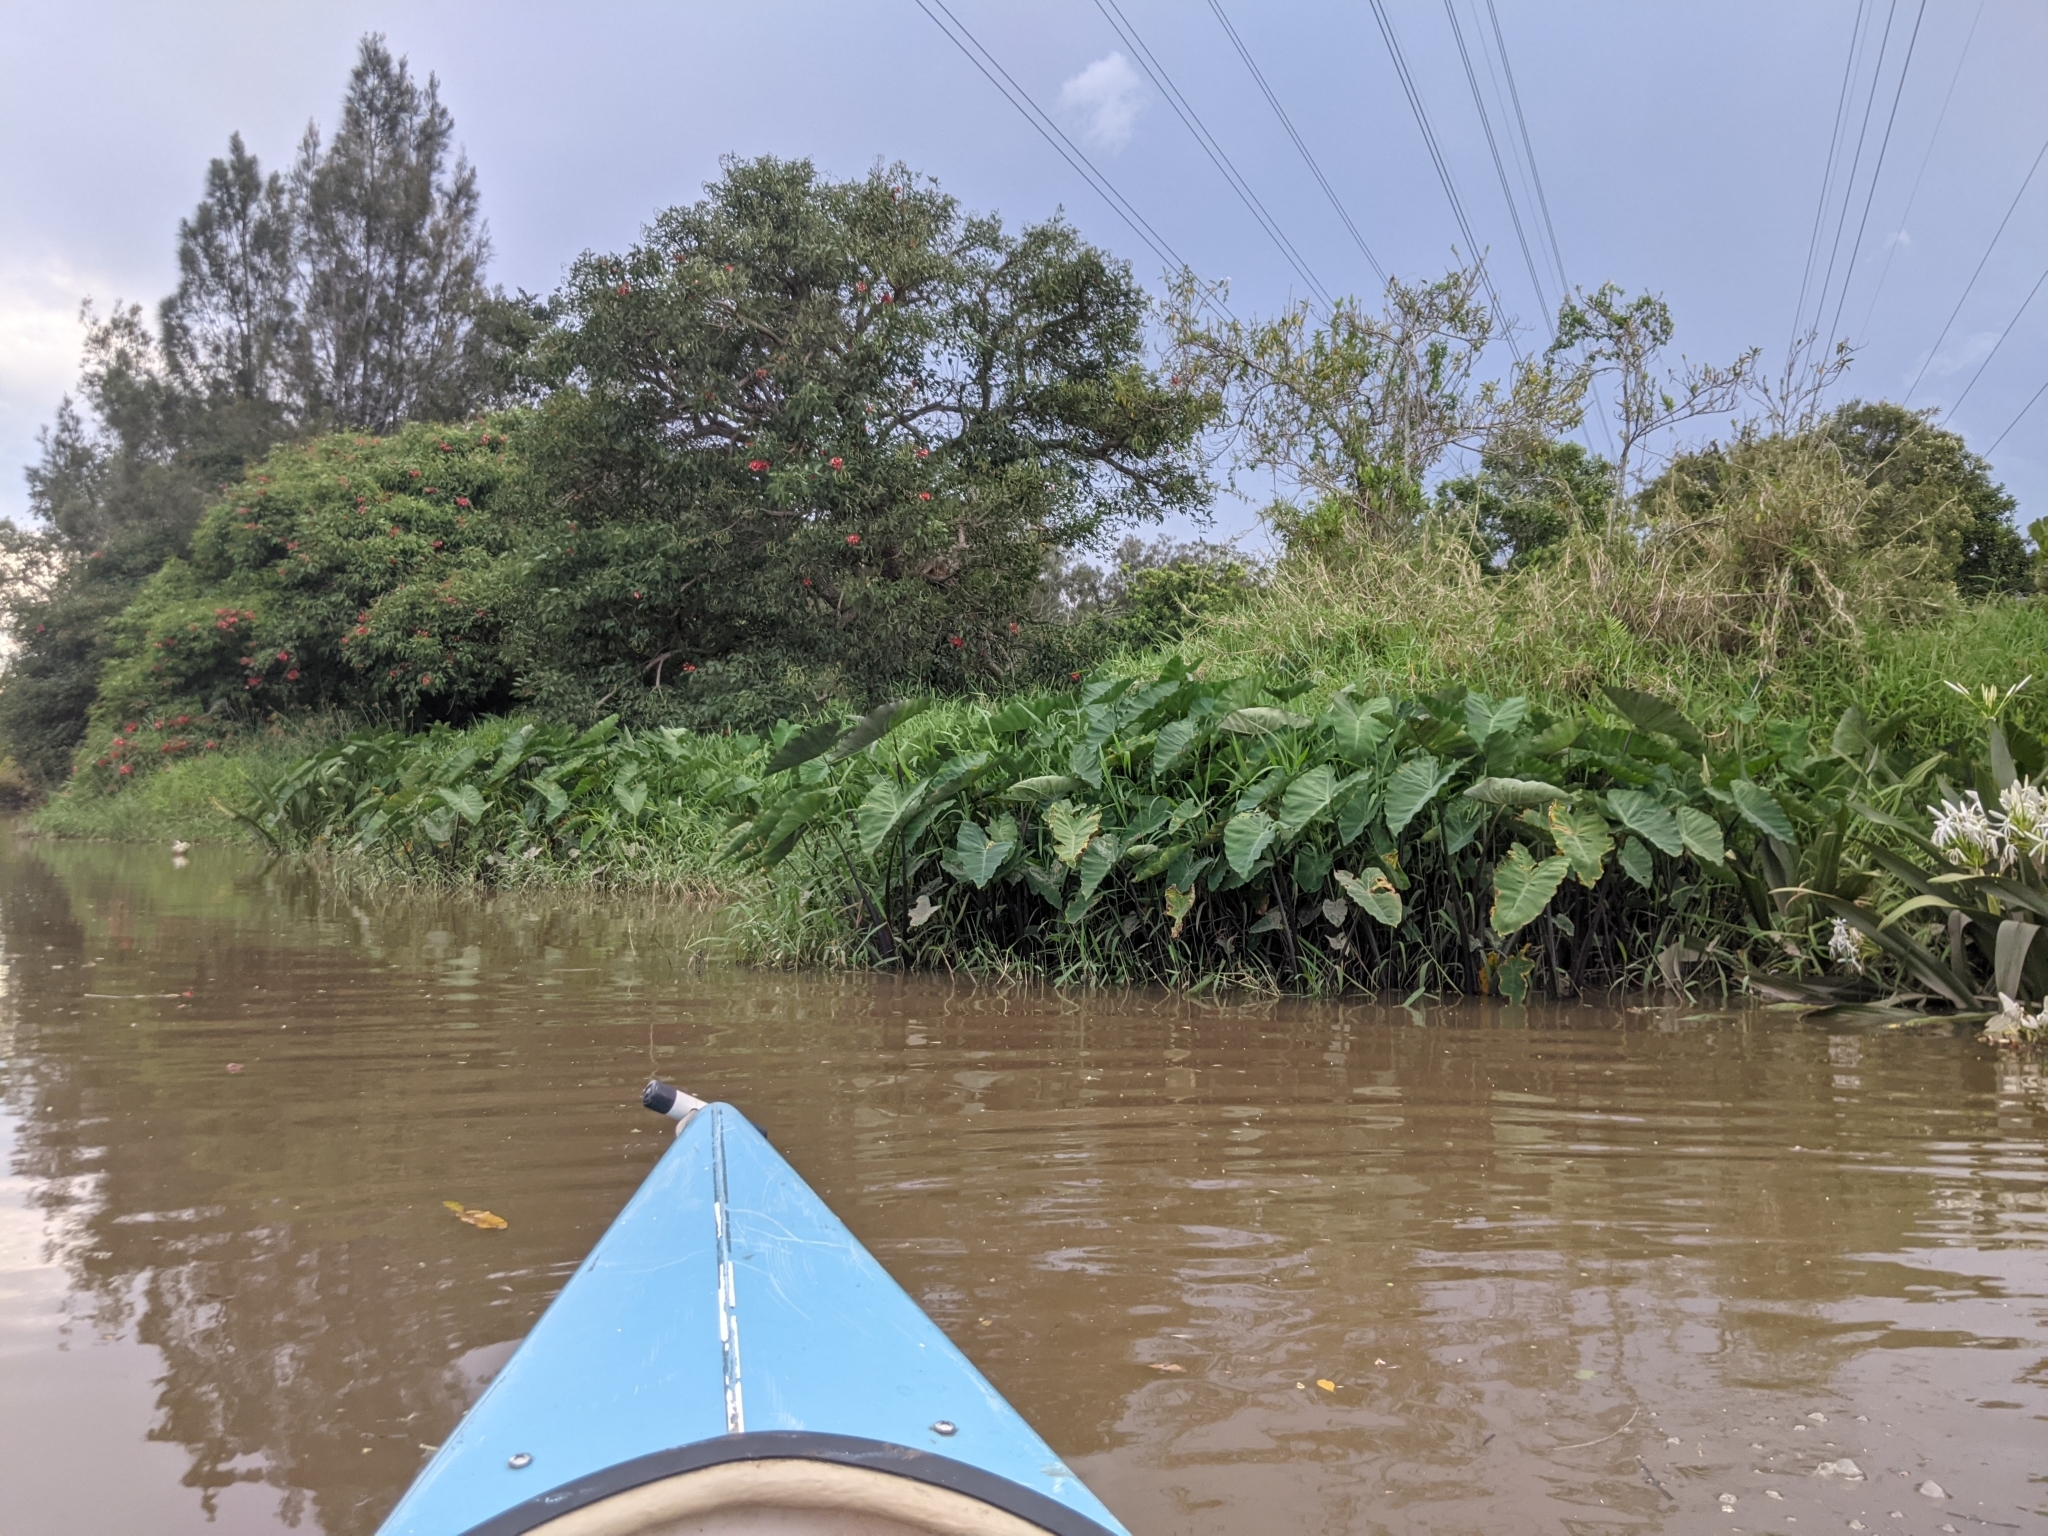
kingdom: Plantae
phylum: Tracheophyta
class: Liliopsida
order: Alismatales
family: Araceae
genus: Colocasia
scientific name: Colocasia esculenta
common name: Taro
